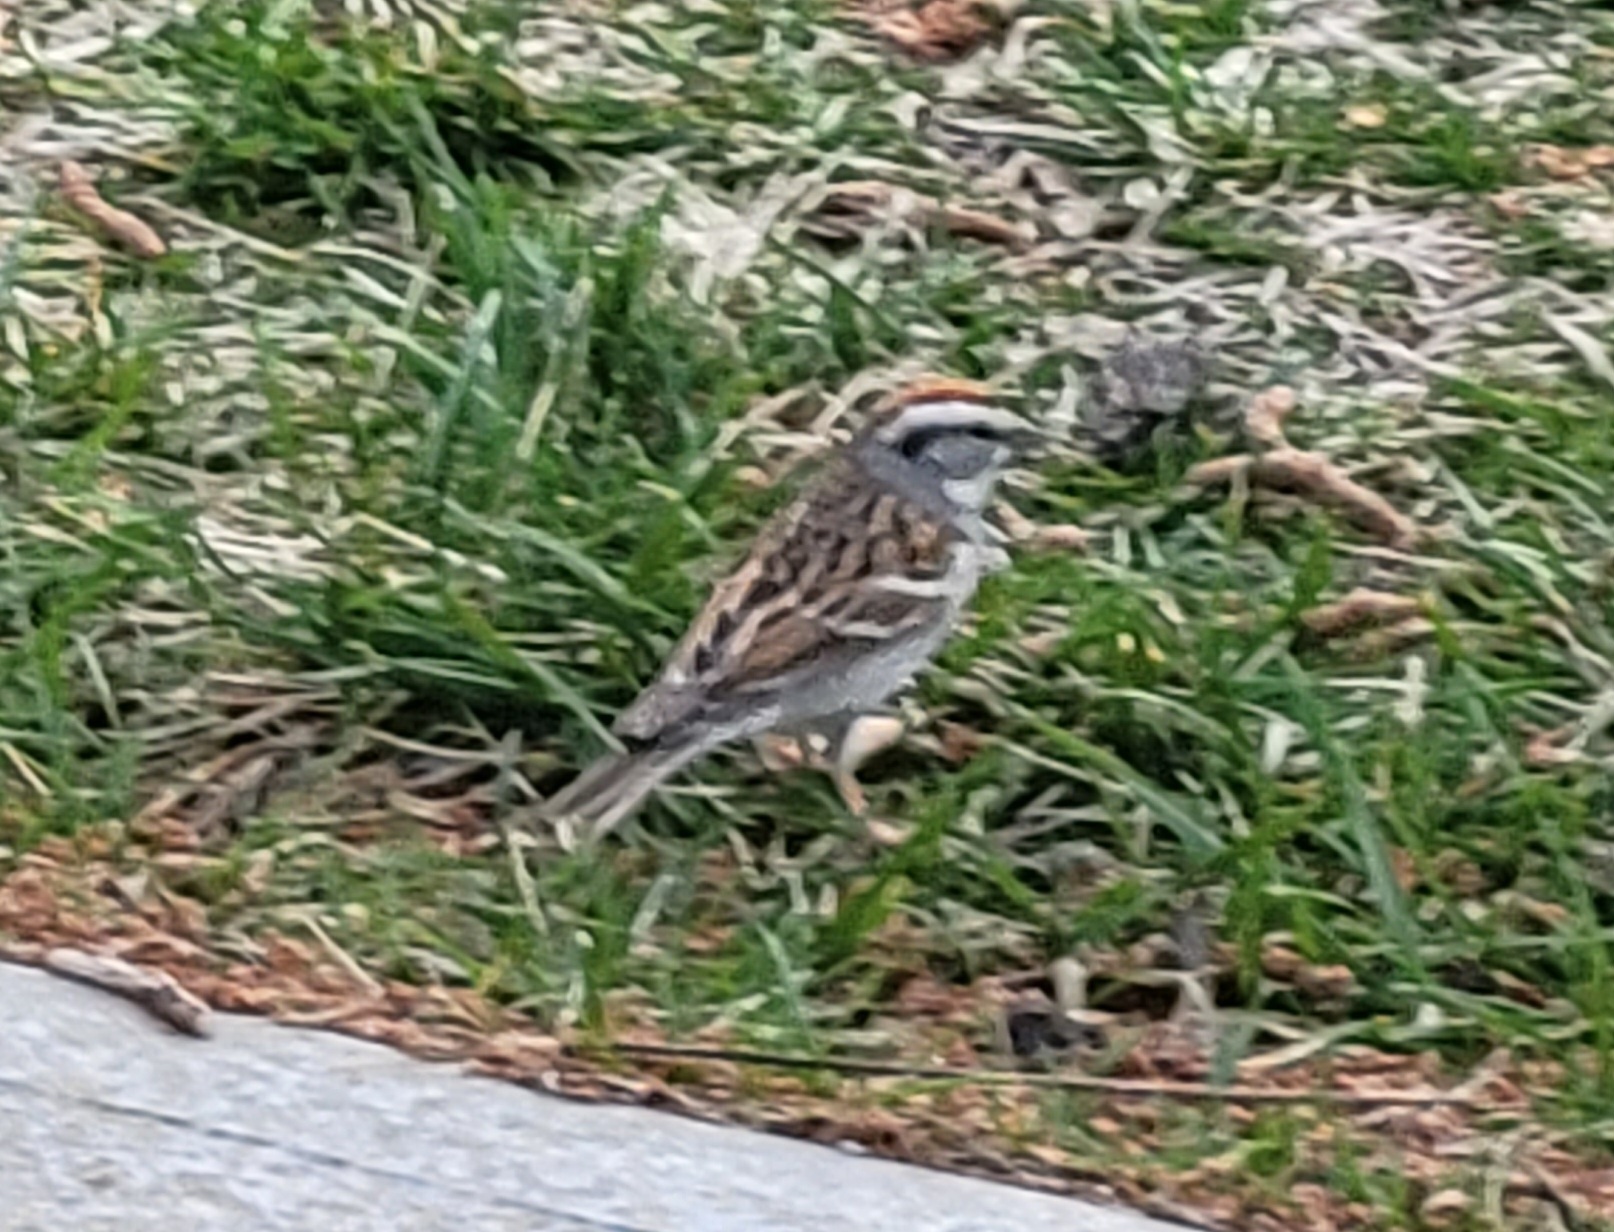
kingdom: Animalia
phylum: Chordata
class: Aves
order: Passeriformes
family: Passerellidae
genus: Spizella
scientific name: Spizella passerina
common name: Chipping sparrow
